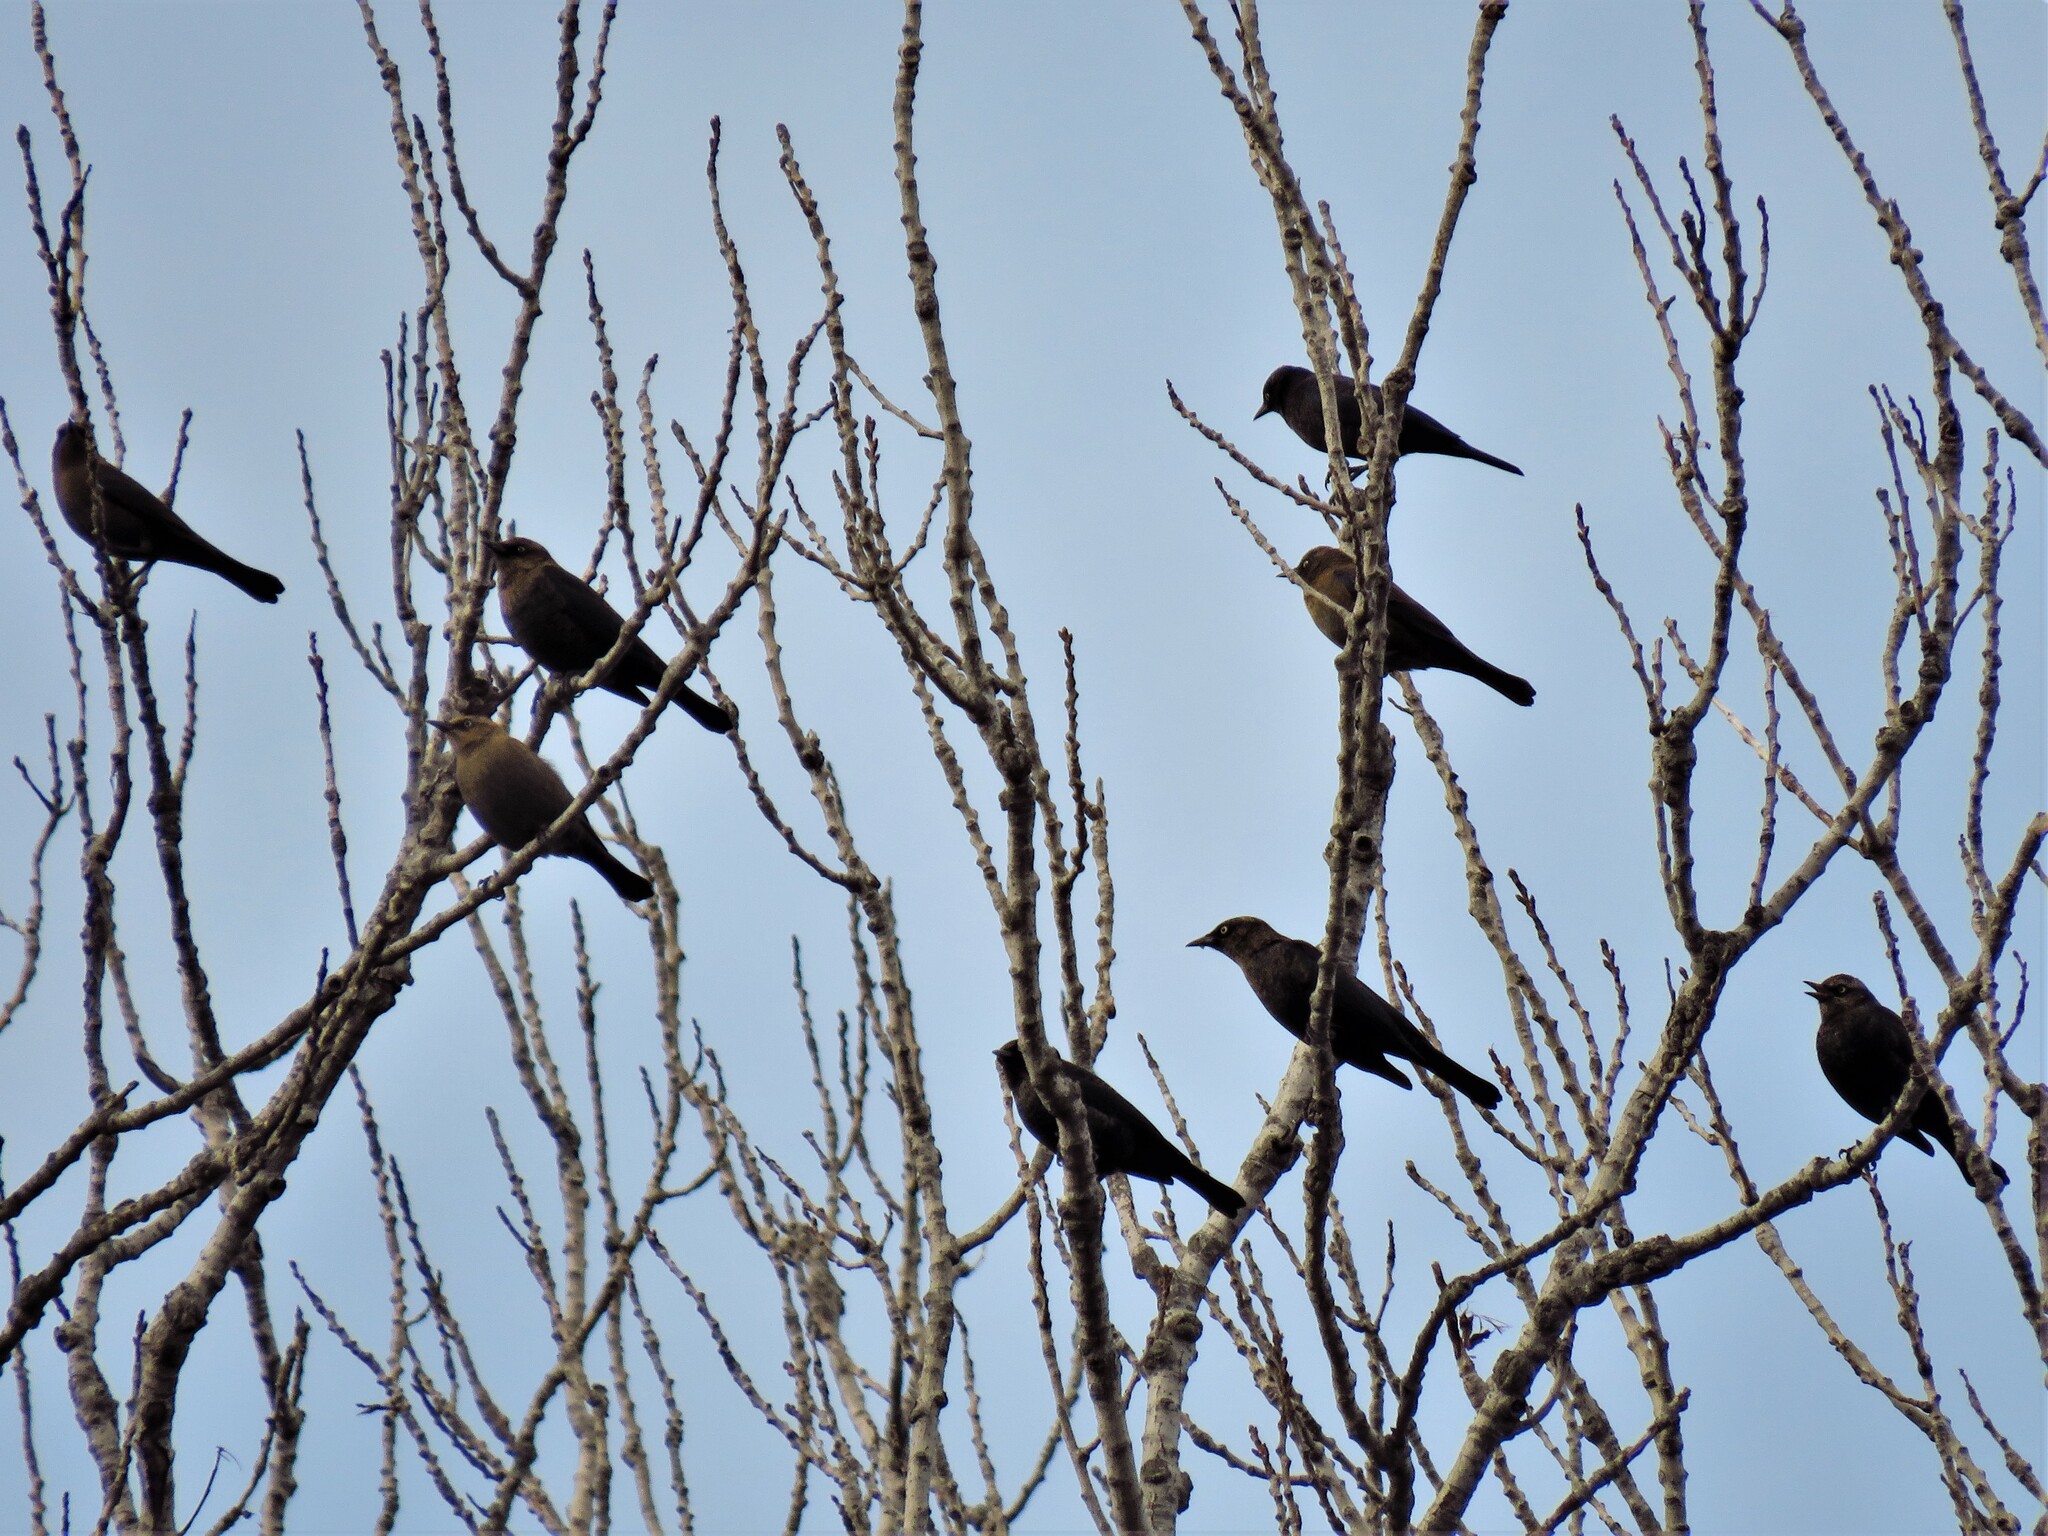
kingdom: Animalia
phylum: Chordata
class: Aves
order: Passeriformes
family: Icteridae
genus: Euphagus
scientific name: Euphagus carolinus
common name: Rusty blackbird
